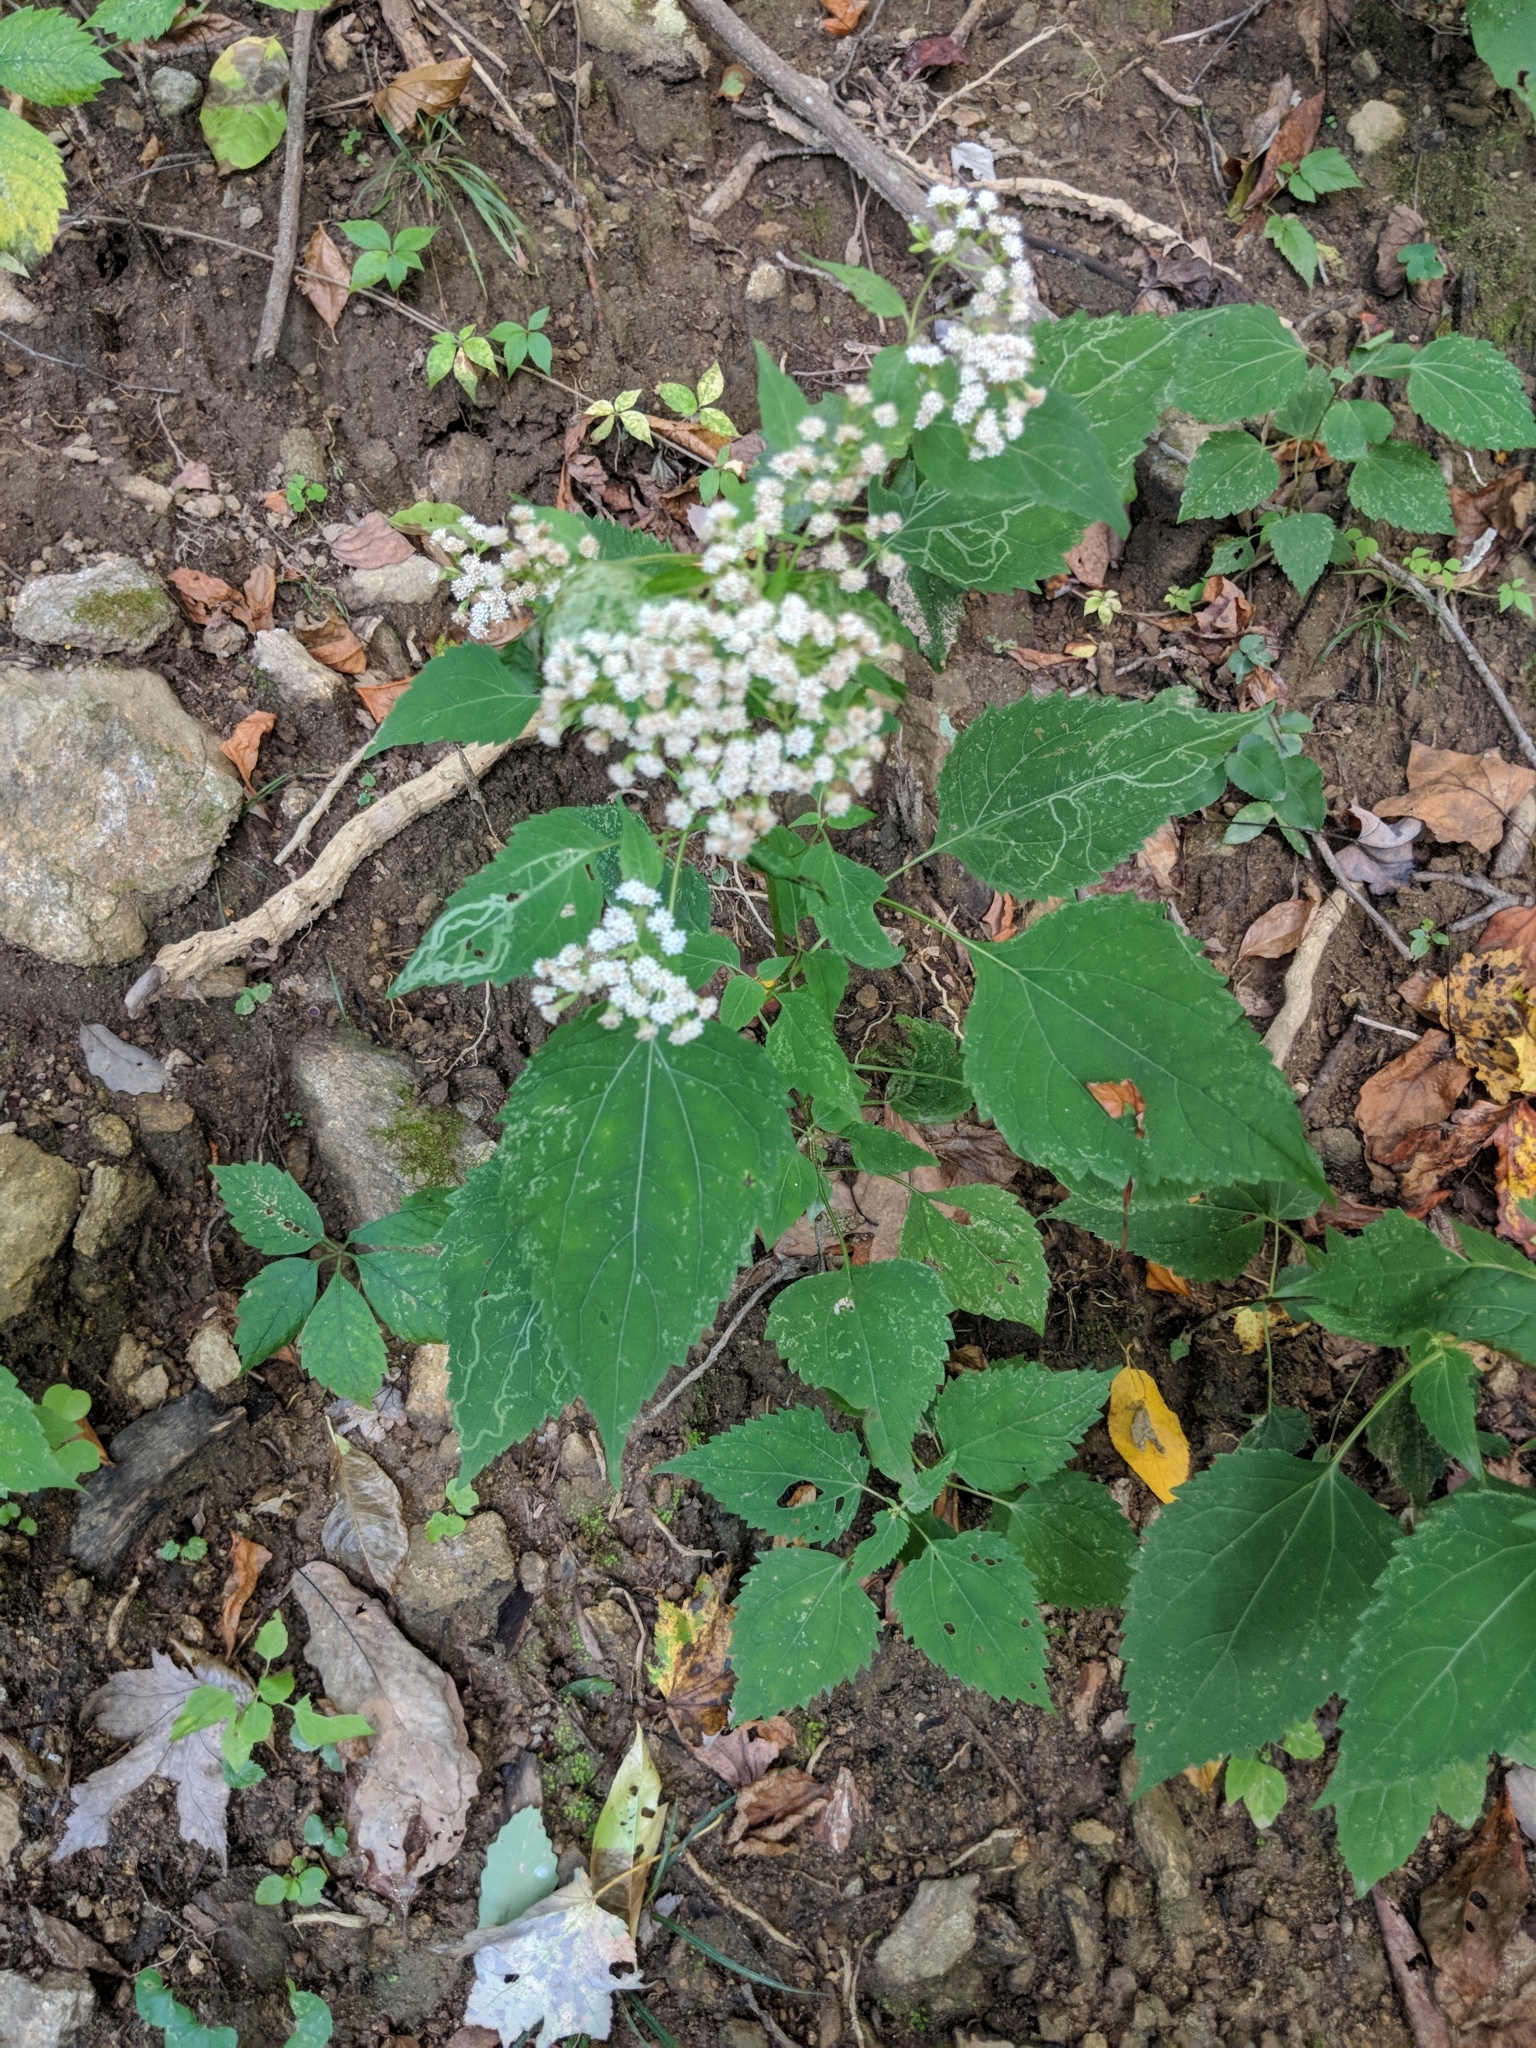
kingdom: Plantae
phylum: Tracheophyta
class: Magnoliopsida
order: Asterales
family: Asteraceae
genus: Ageratina
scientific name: Ageratina altissima
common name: White snakeroot
